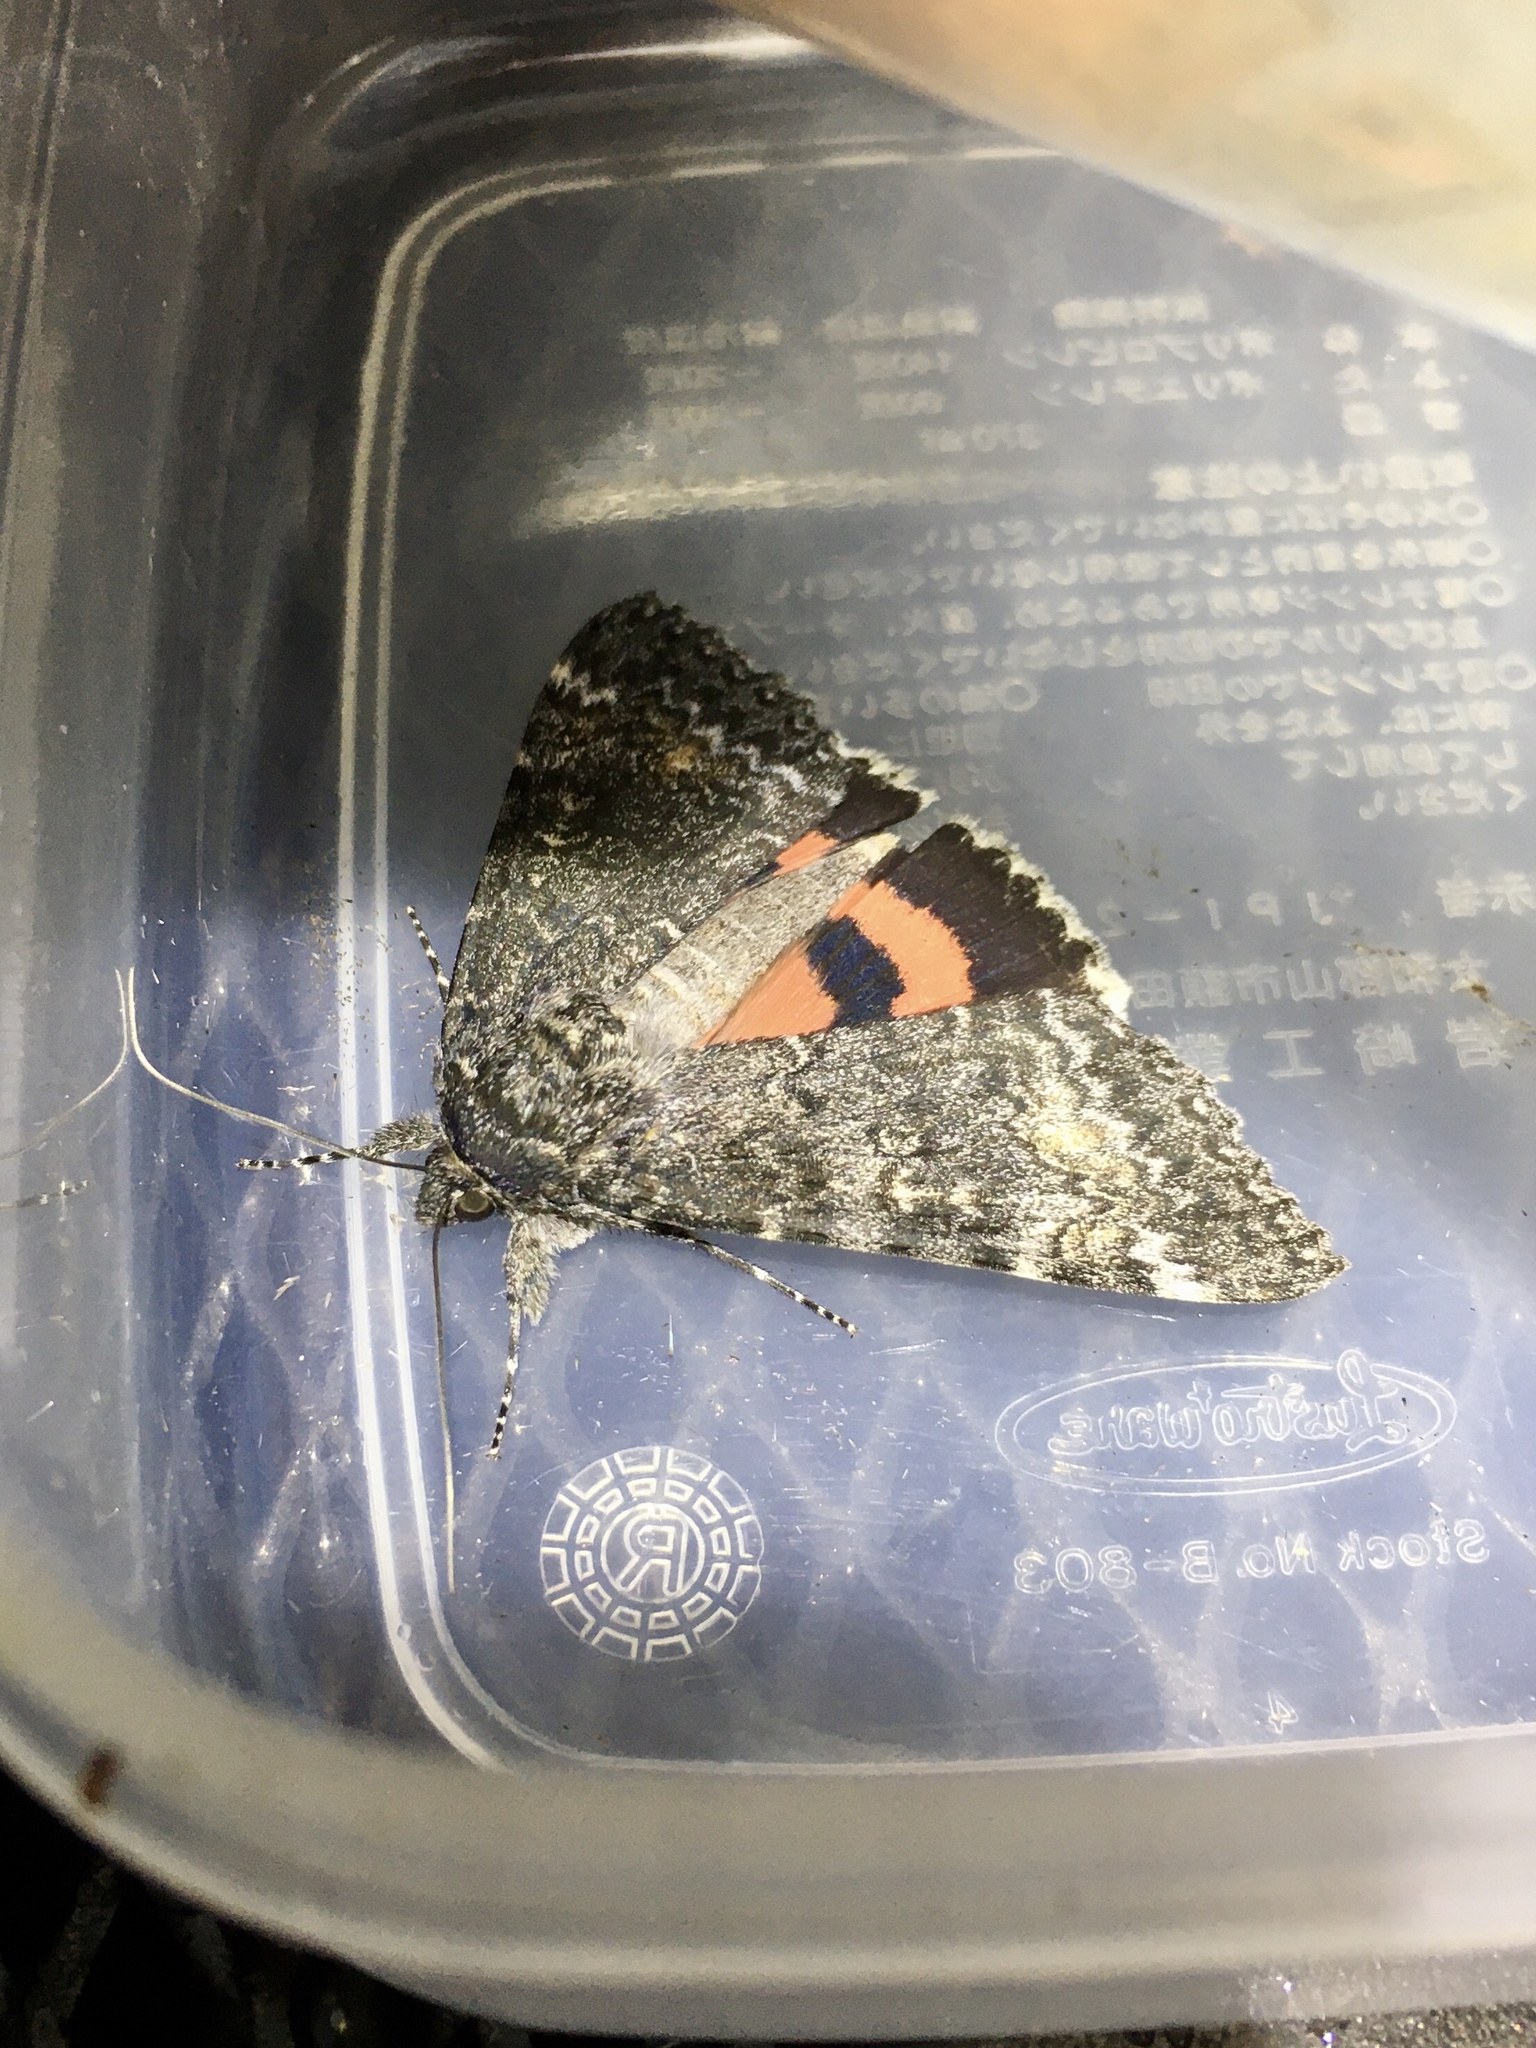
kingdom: Animalia
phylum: Arthropoda
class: Insecta
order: Lepidoptera
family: Erebidae
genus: Catocala
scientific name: Catocala briseis
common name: Briseis underwing
